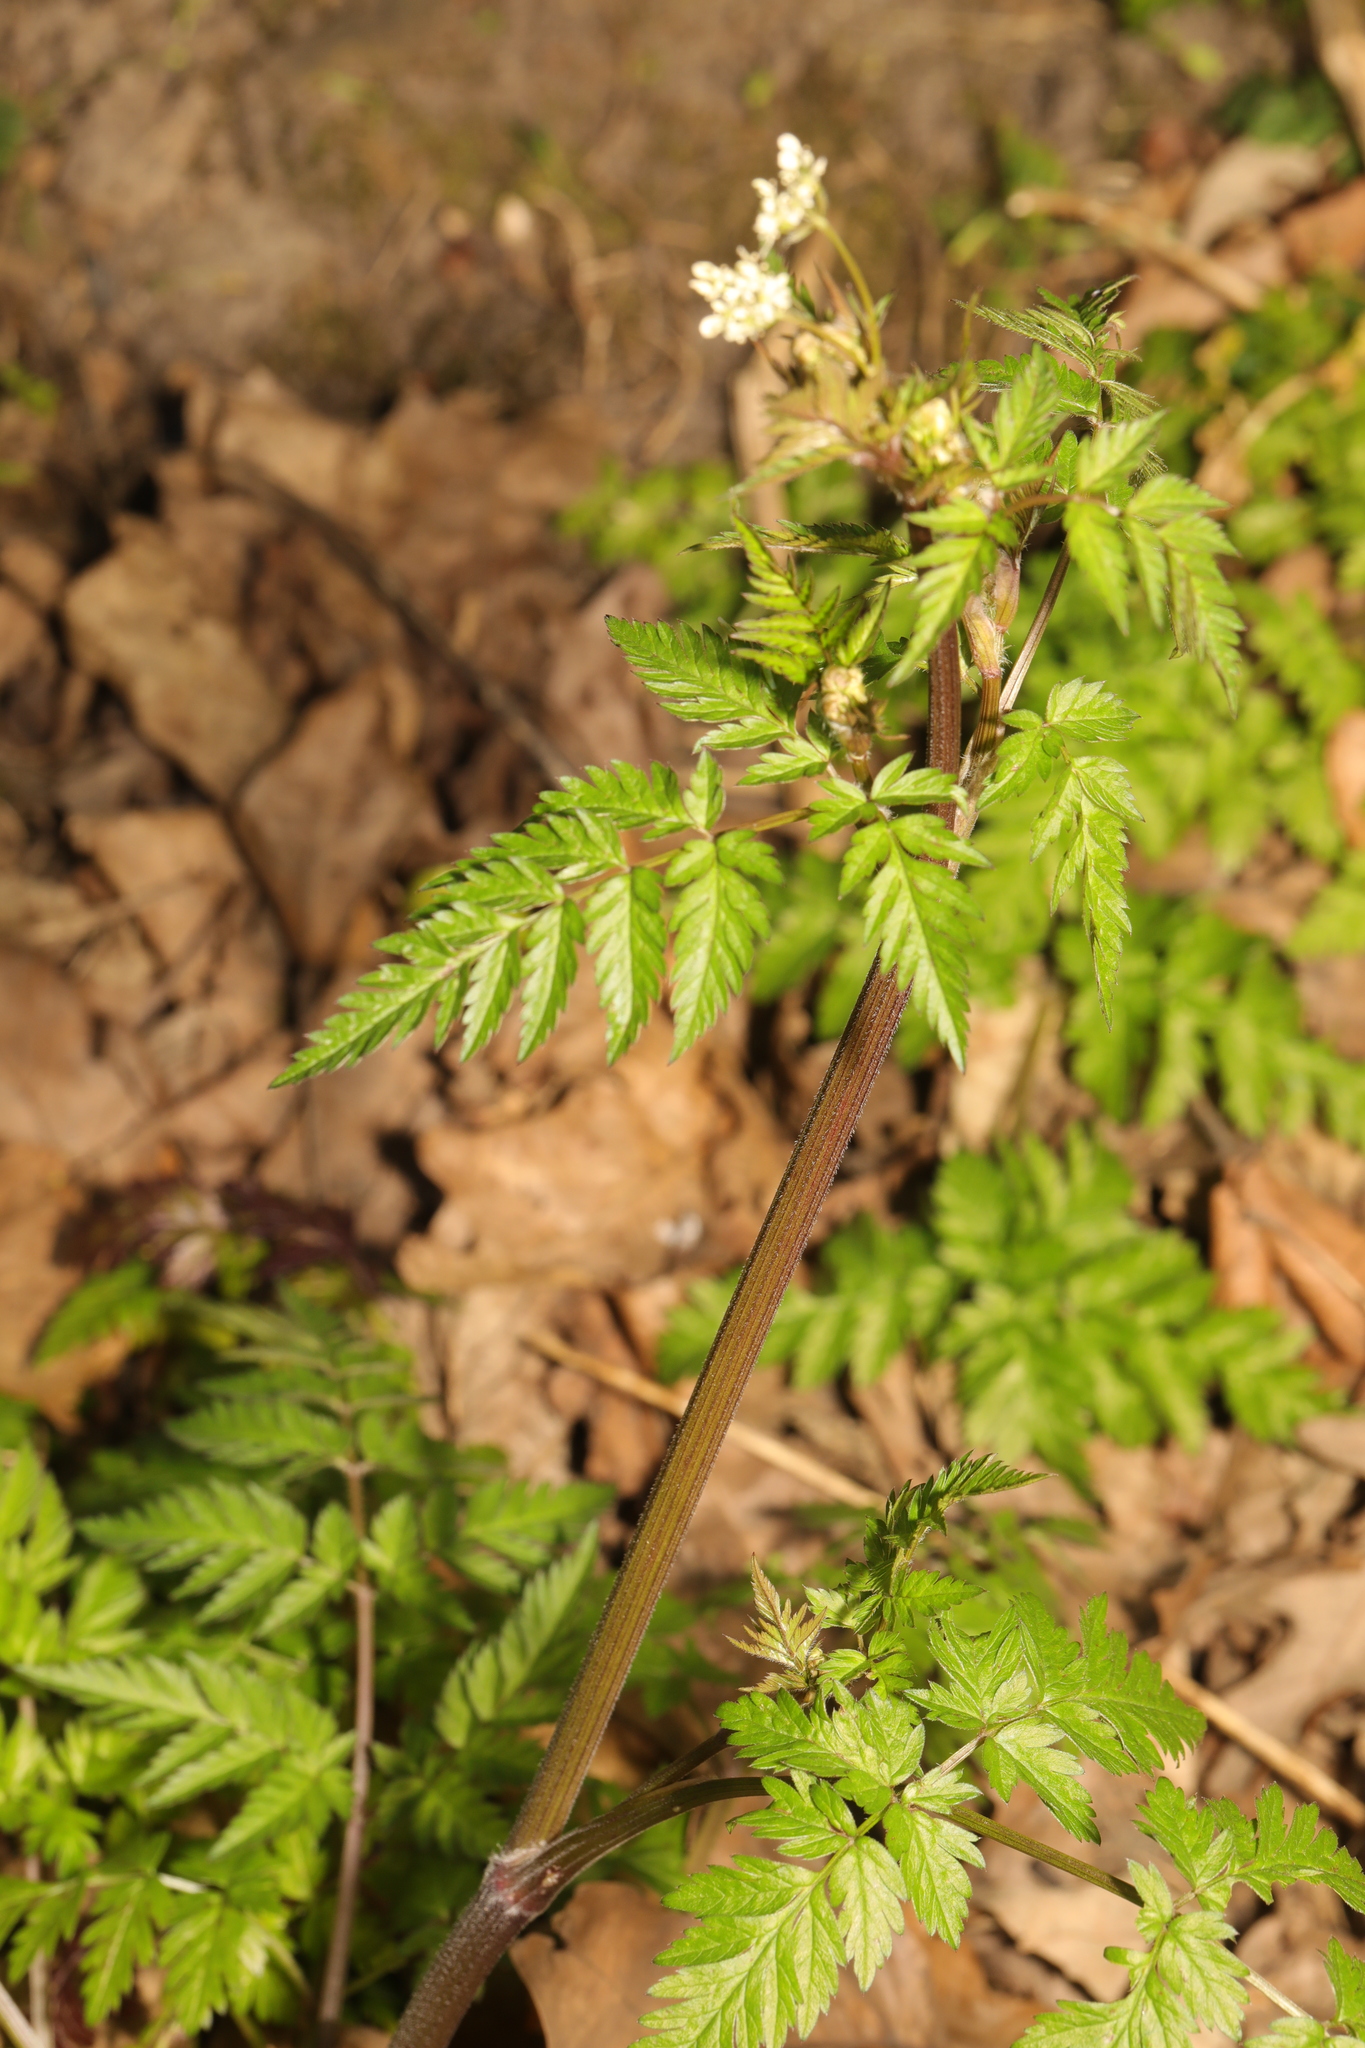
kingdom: Plantae
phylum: Tracheophyta
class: Magnoliopsida
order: Apiales
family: Apiaceae
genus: Anthriscus
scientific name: Anthriscus sylvestris
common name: Cow parsley
